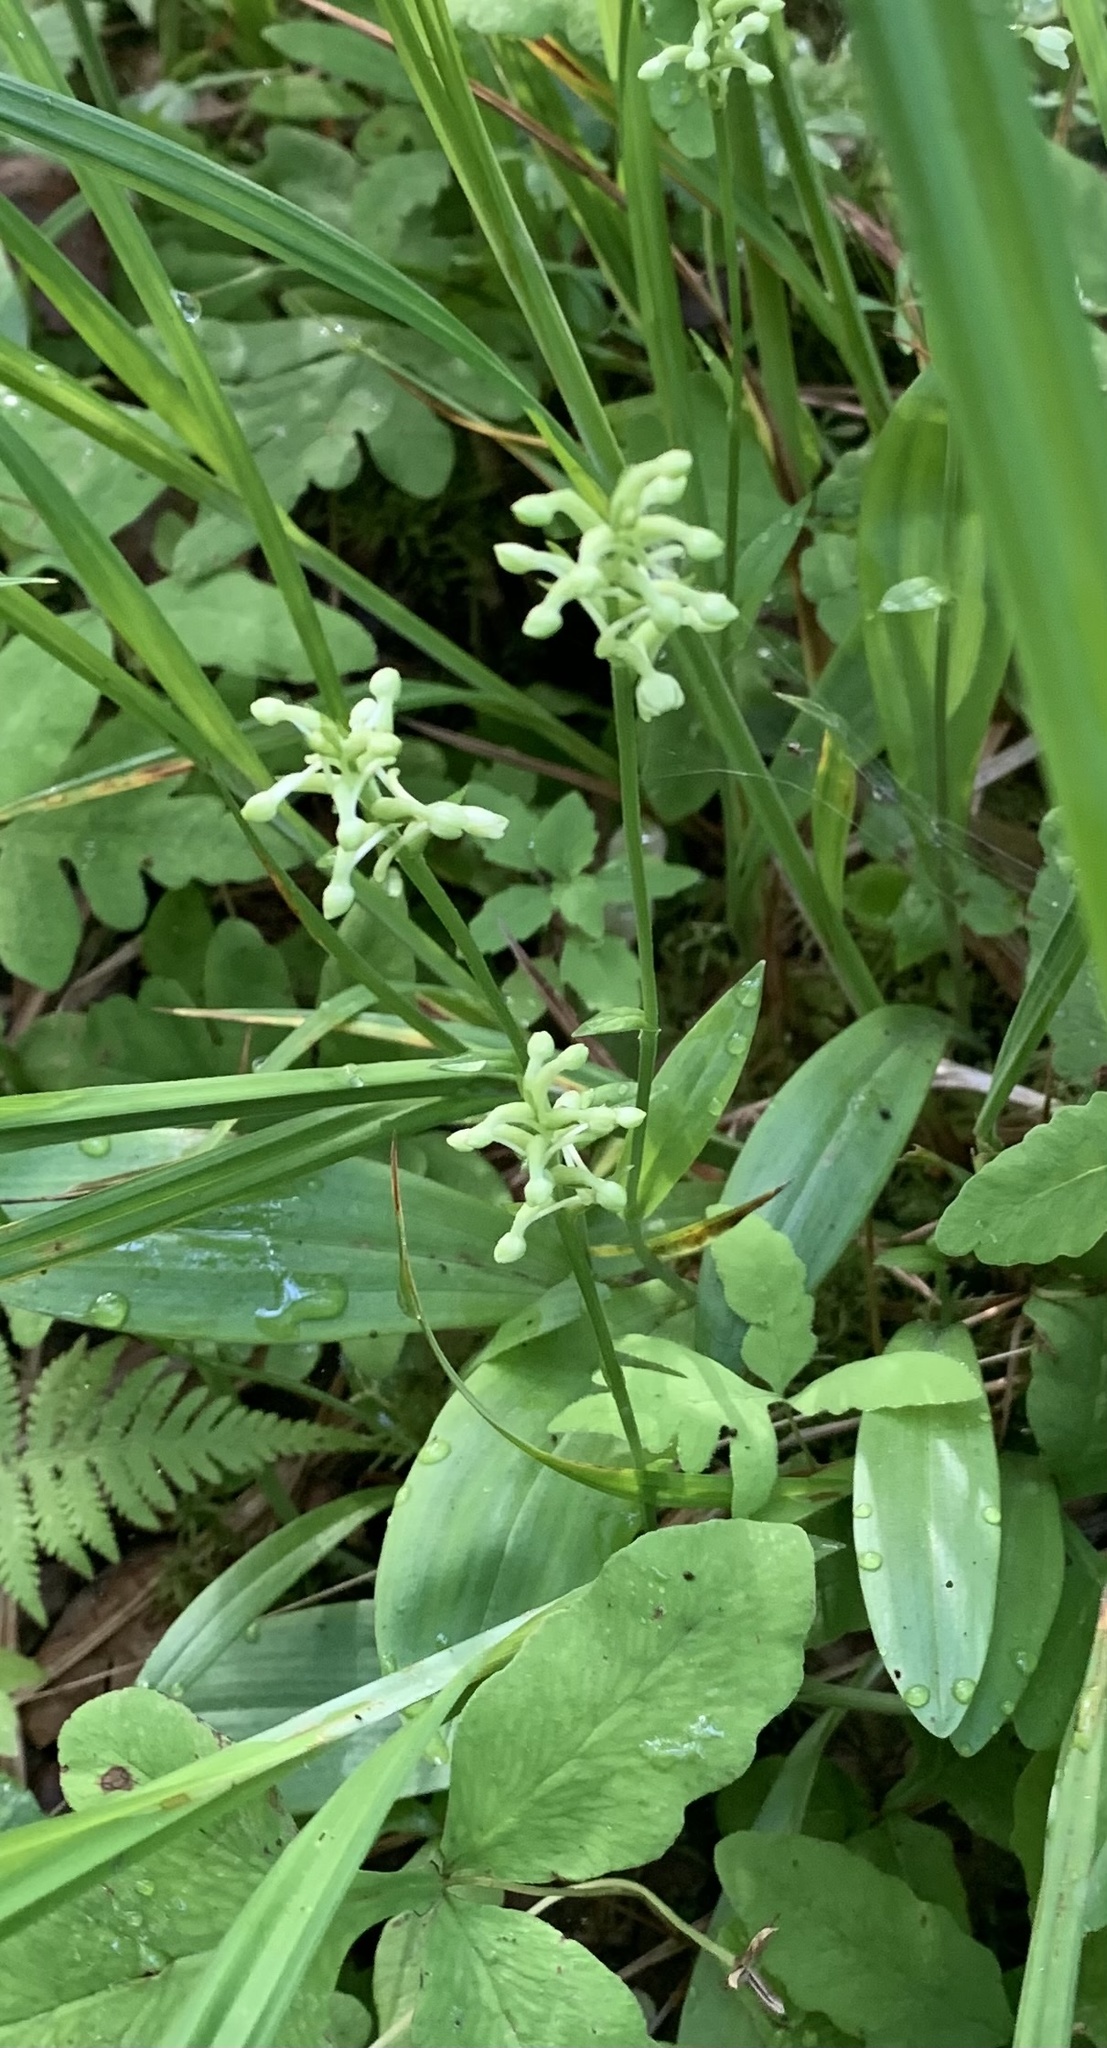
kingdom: Plantae
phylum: Tracheophyta
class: Liliopsida
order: Asparagales
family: Orchidaceae
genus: Platanthera
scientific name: Platanthera clavellata
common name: Club-spur orchid
